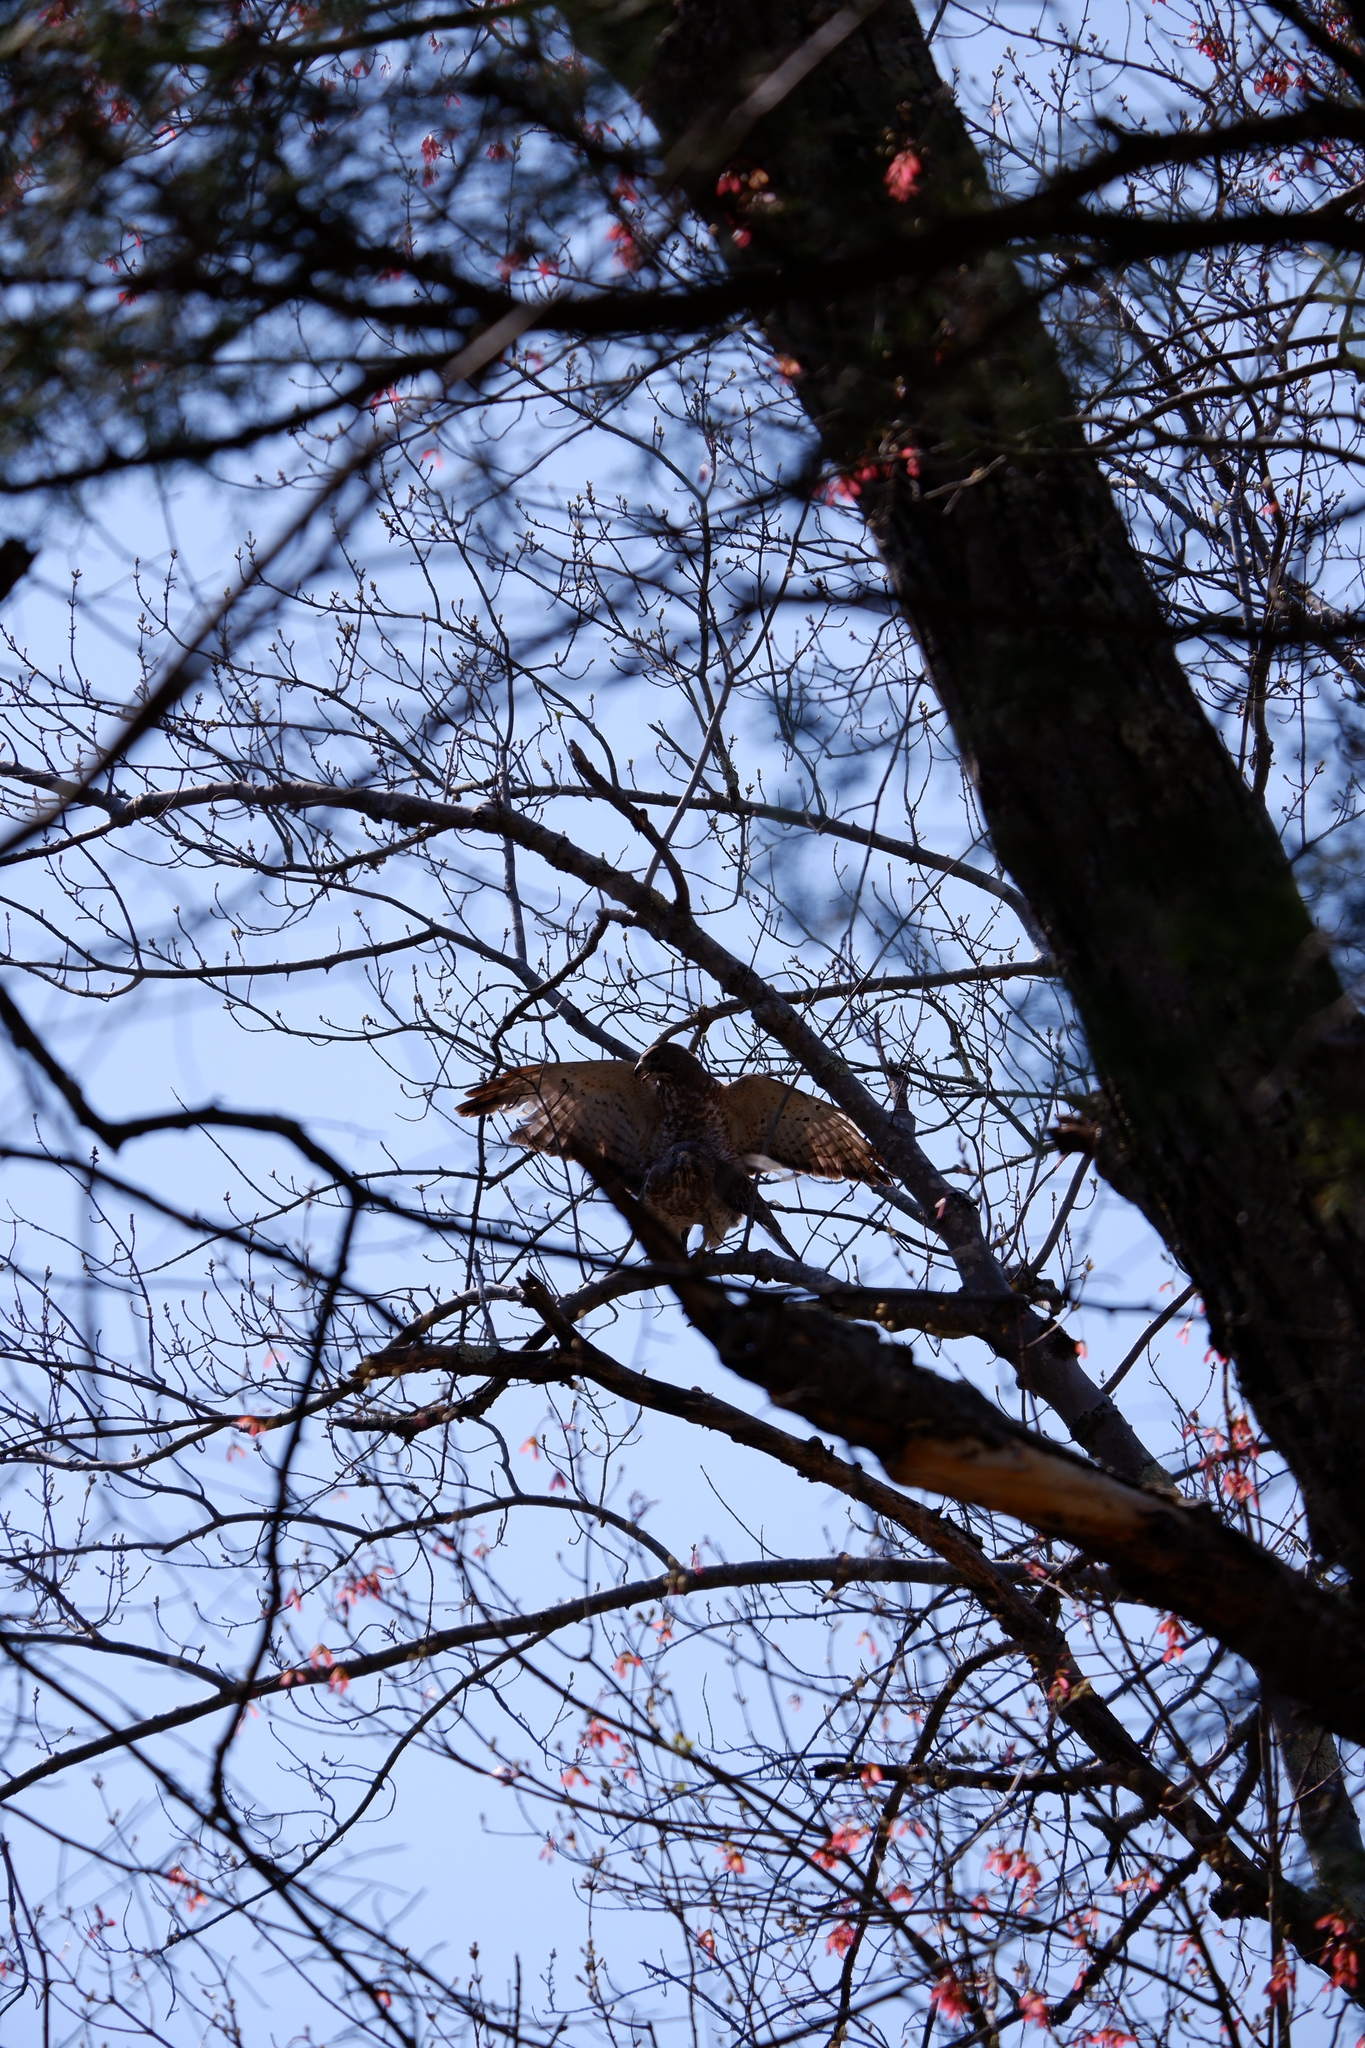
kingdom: Animalia
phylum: Chordata
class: Aves
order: Accipitriformes
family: Accipitridae
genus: Buteo
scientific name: Buteo platypterus
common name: Broad-winged hawk
